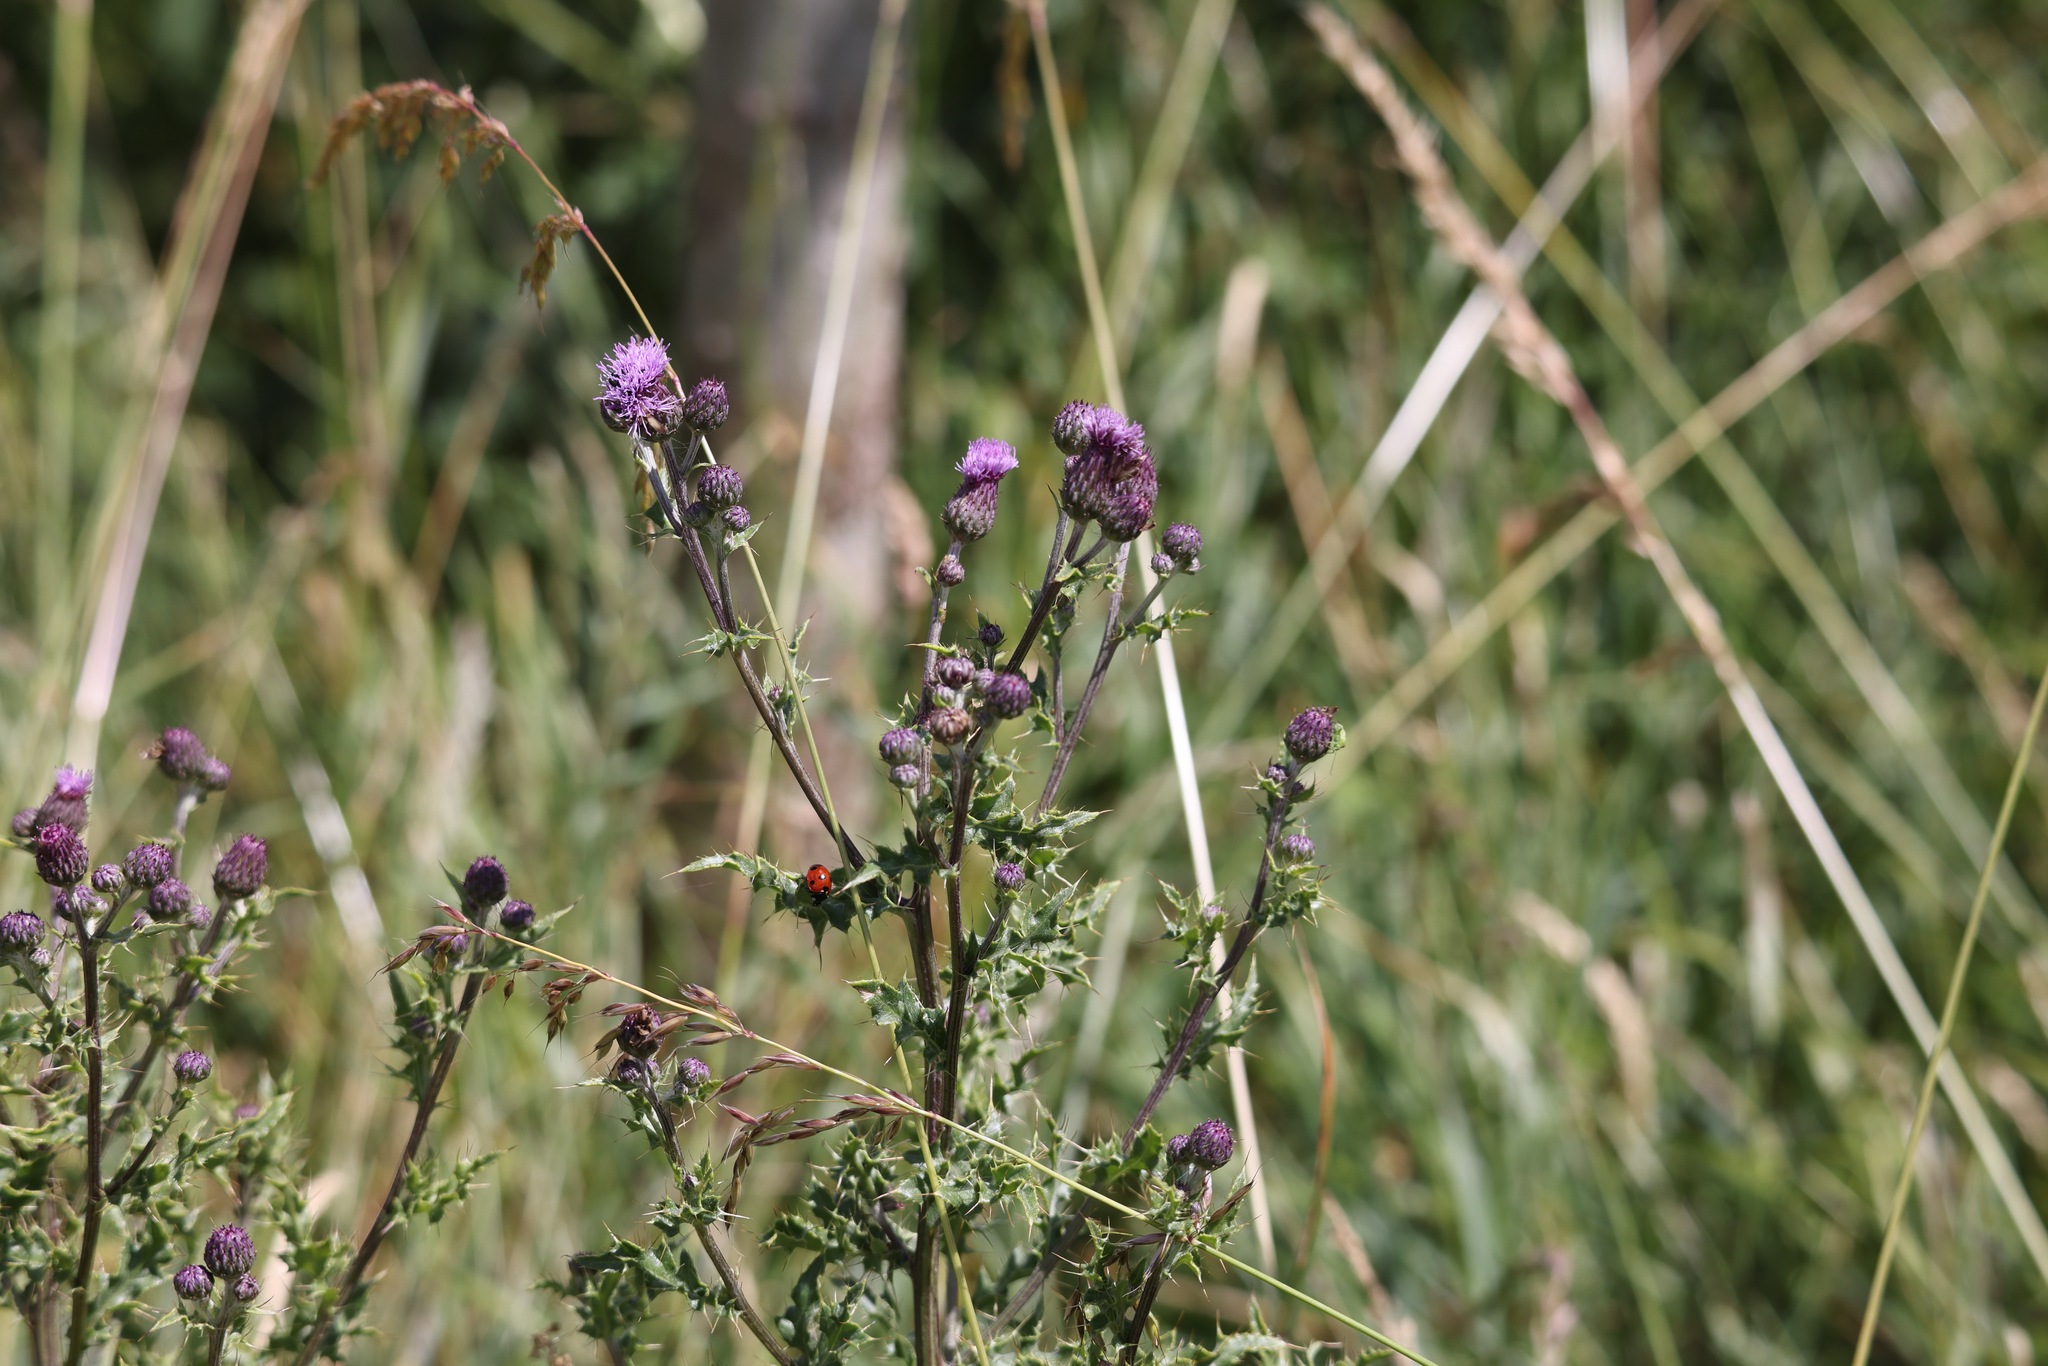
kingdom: Plantae
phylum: Tracheophyta
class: Magnoliopsida
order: Asterales
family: Asteraceae
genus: Cirsium
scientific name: Cirsium arvense
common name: Creeping thistle
